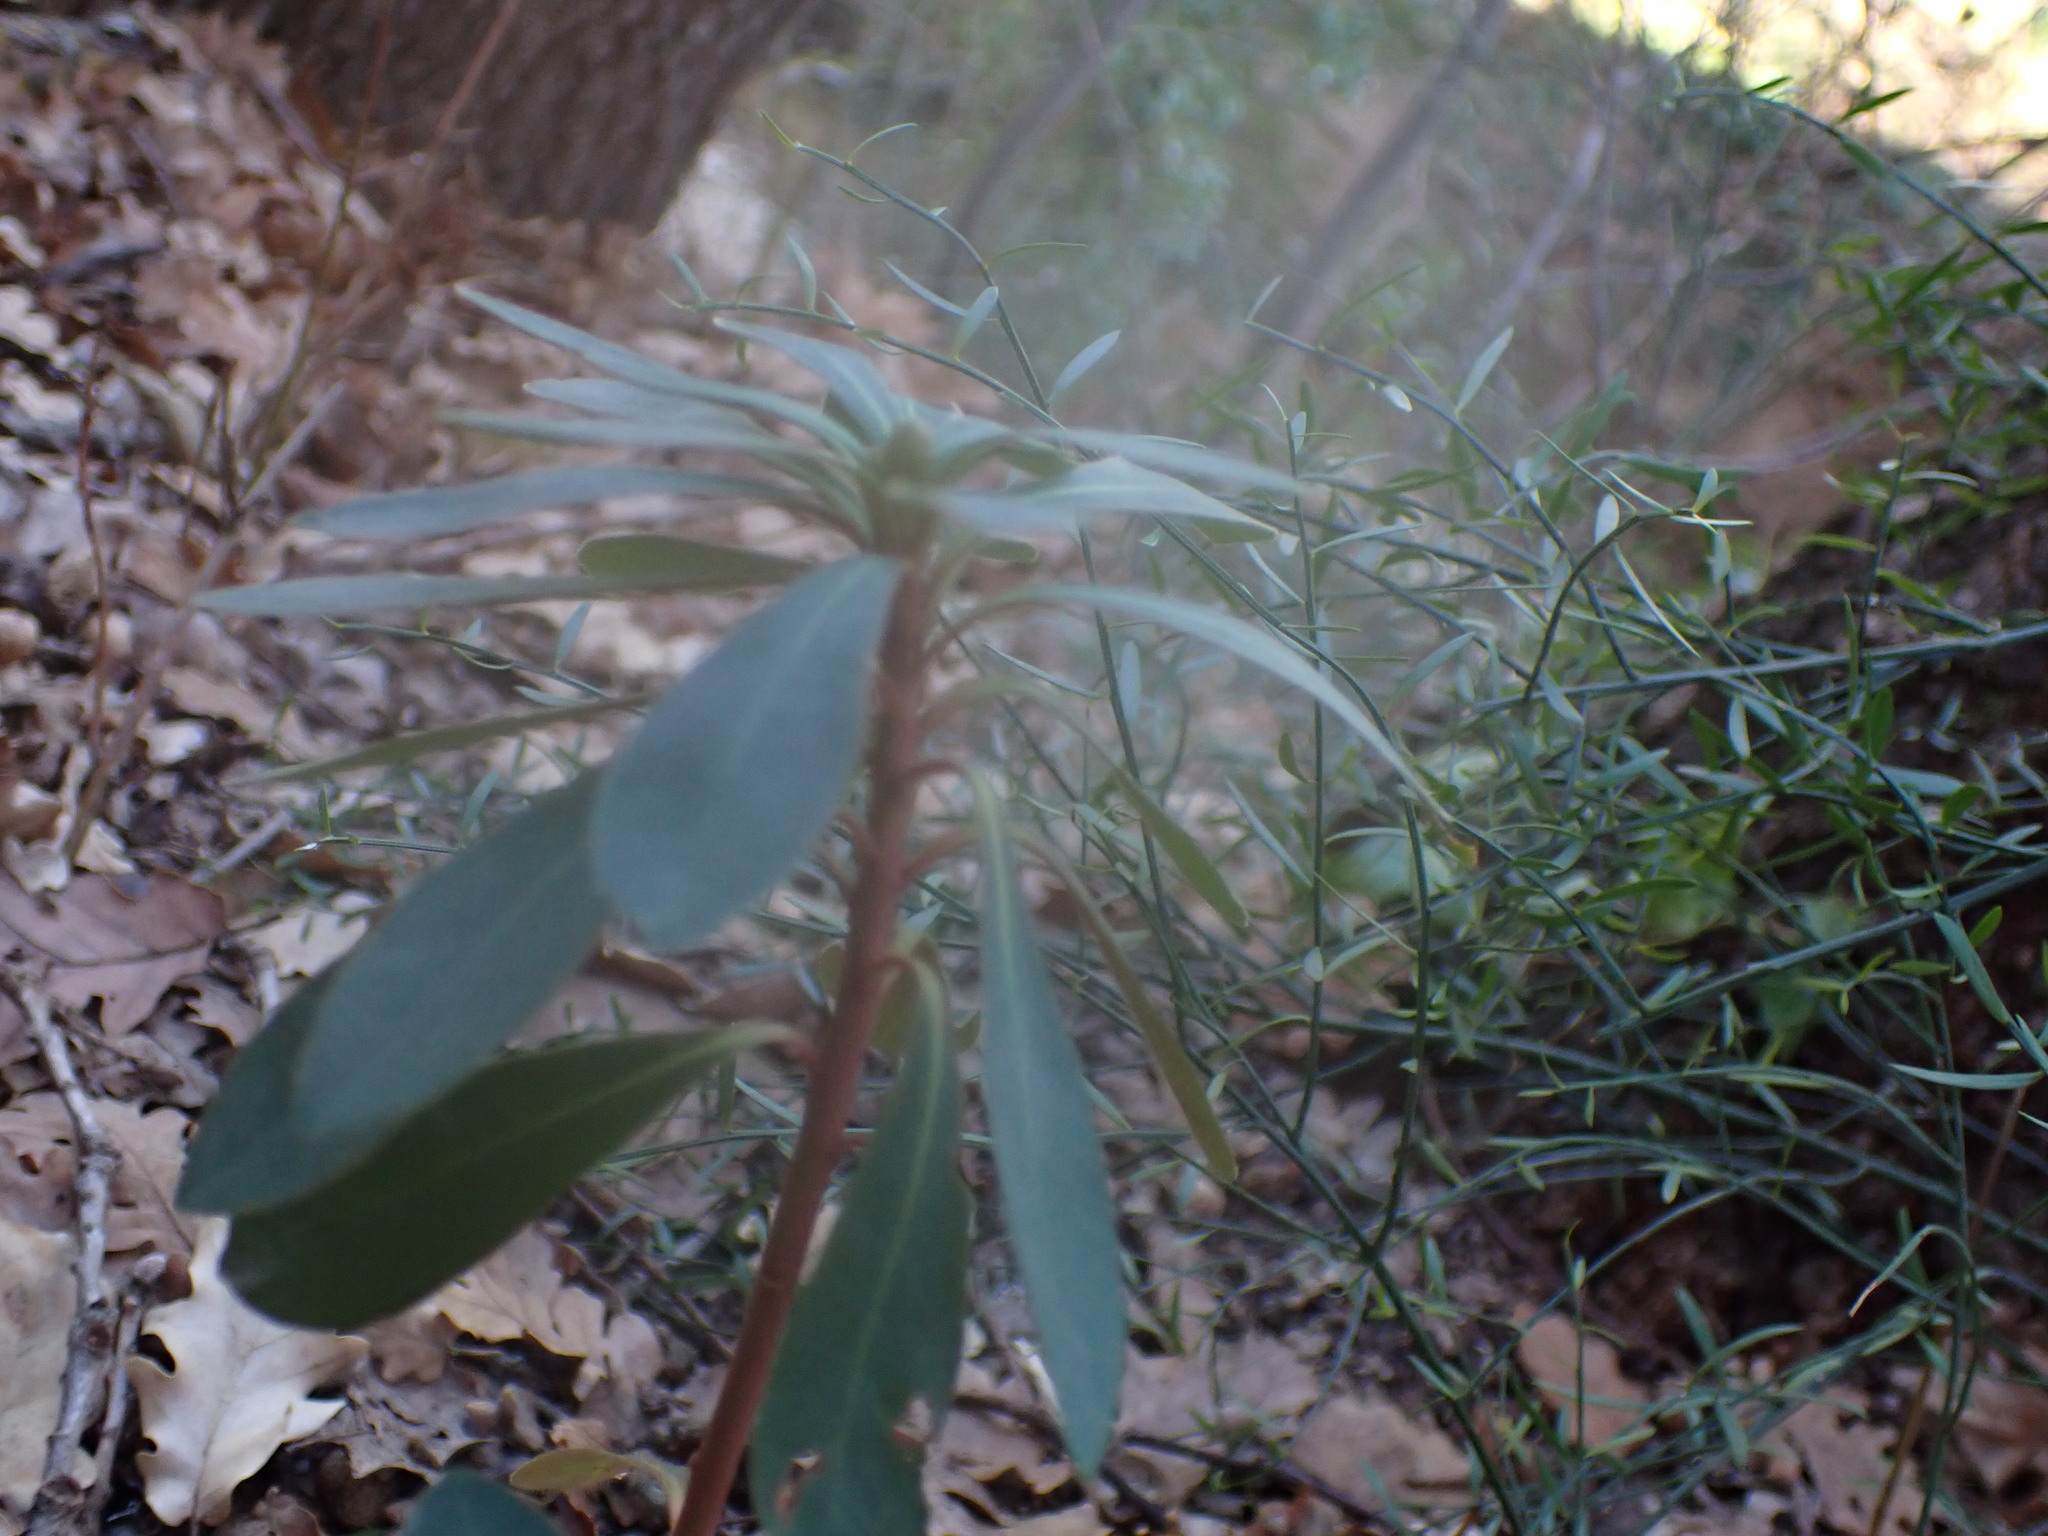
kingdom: Plantae
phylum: Tracheophyta
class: Magnoliopsida
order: Malpighiales
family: Euphorbiaceae
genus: Euphorbia
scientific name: Euphorbia amygdaloides
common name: Wood spurge
